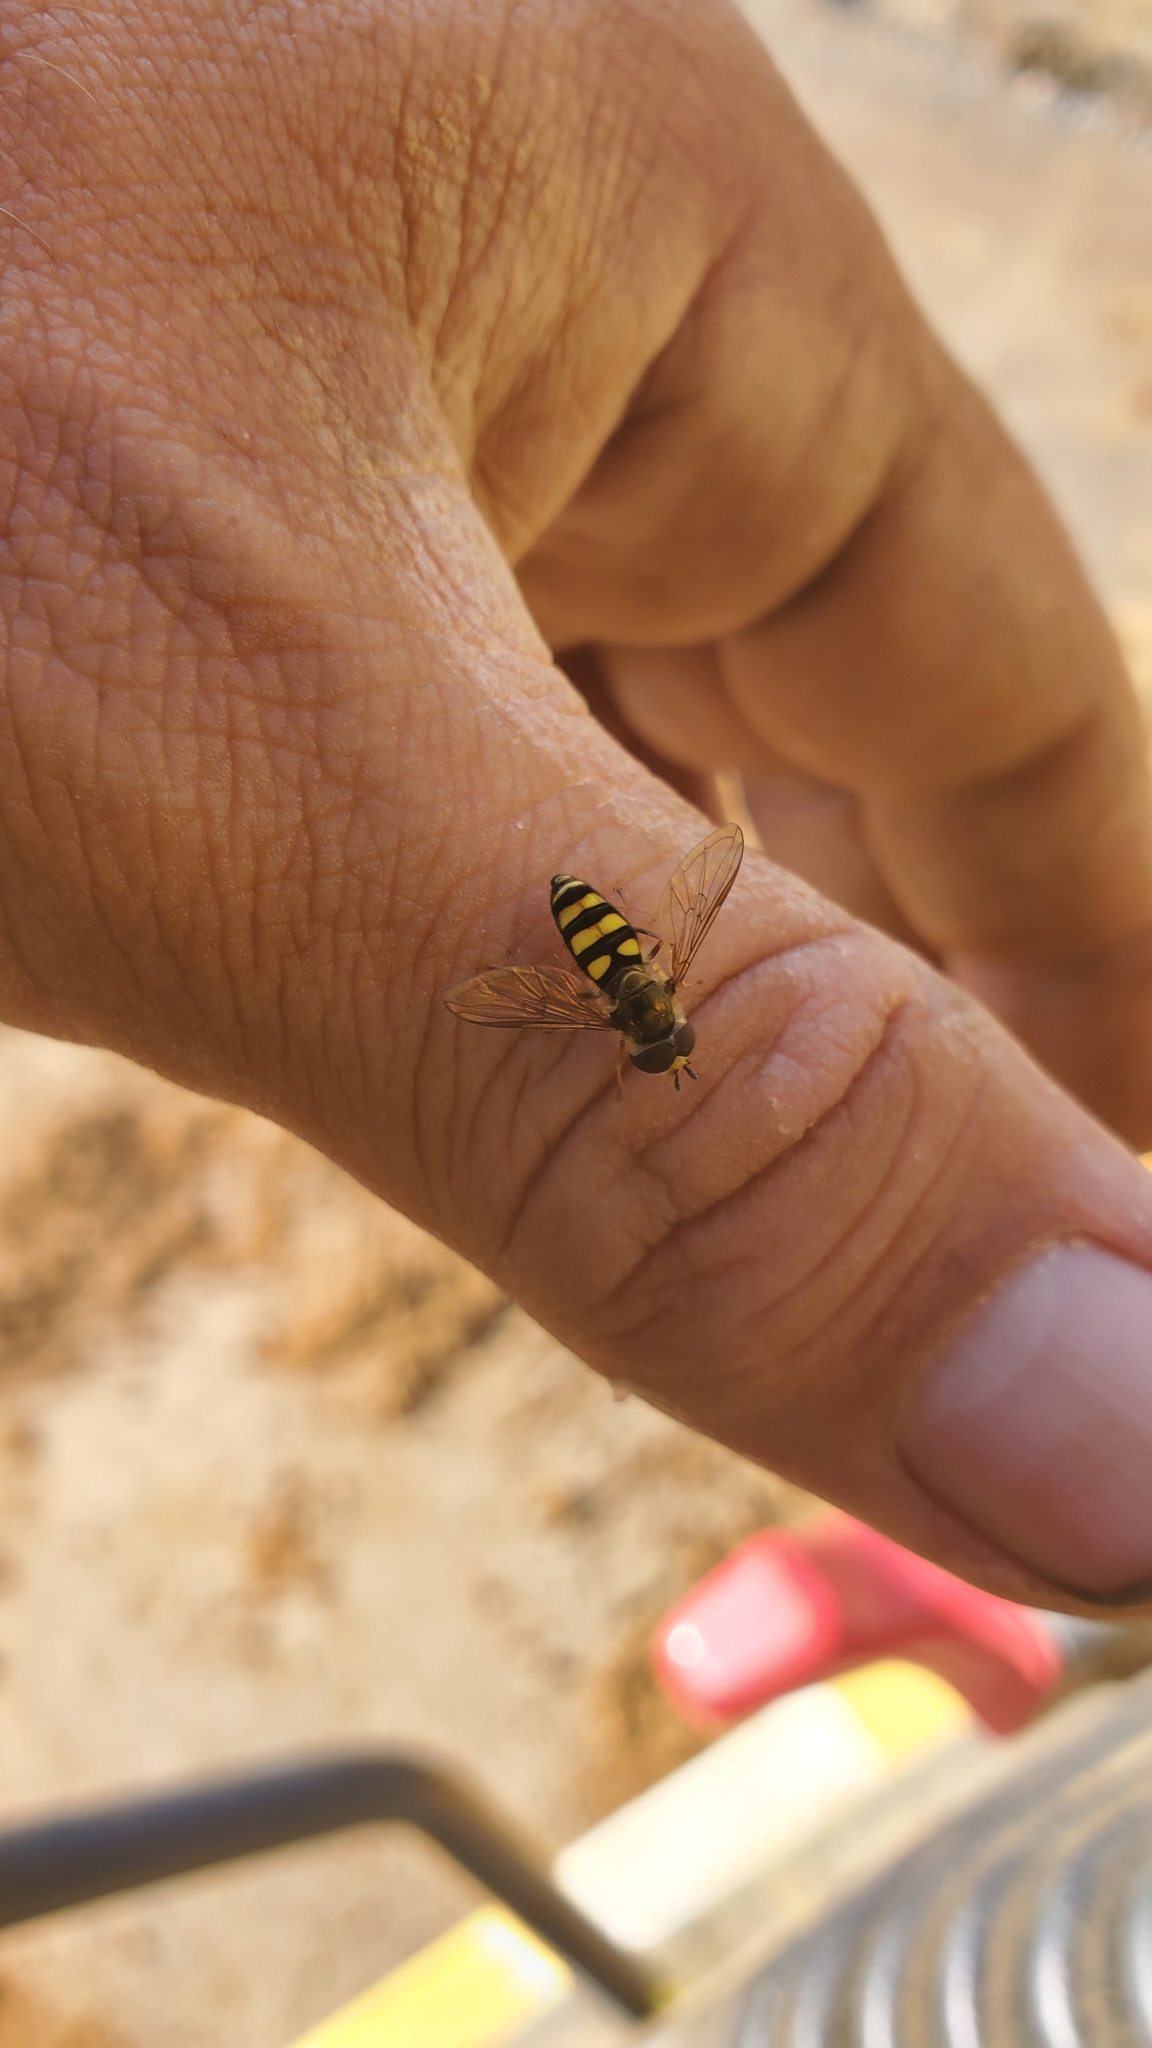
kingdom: Animalia
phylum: Arthropoda
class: Insecta
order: Diptera
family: Syrphidae
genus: Eupeodes
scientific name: Eupeodes
